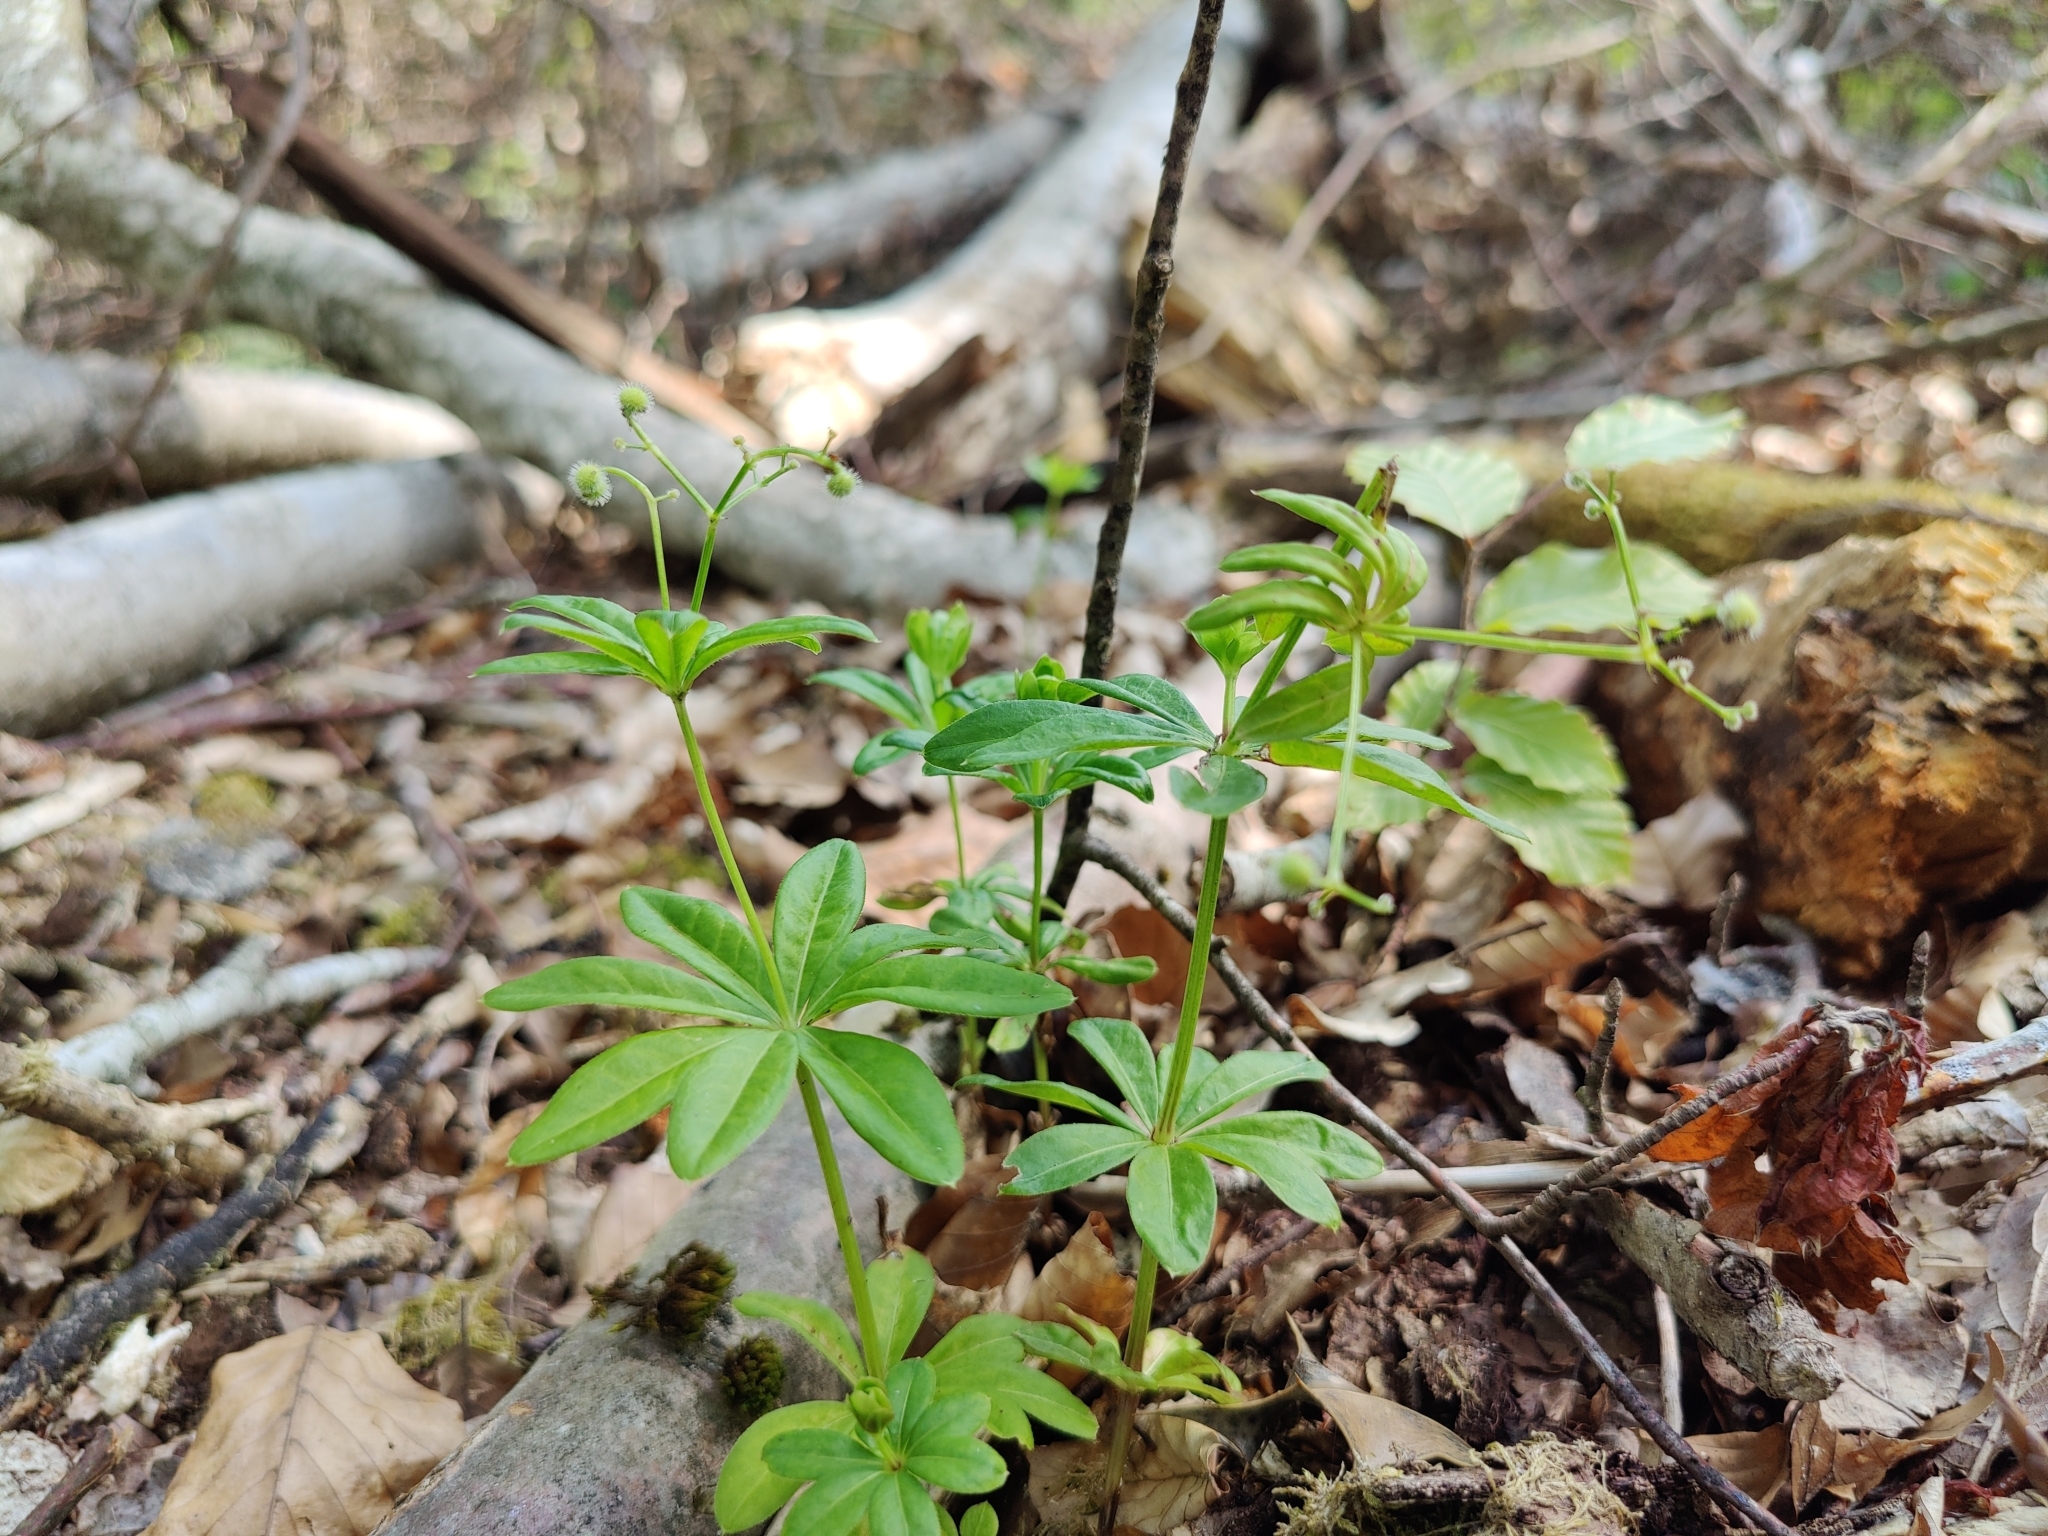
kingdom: Plantae
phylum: Tracheophyta
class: Magnoliopsida
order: Gentianales
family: Rubiaceae
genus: Galium
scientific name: Galium odoratum
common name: Sweet woodruff
